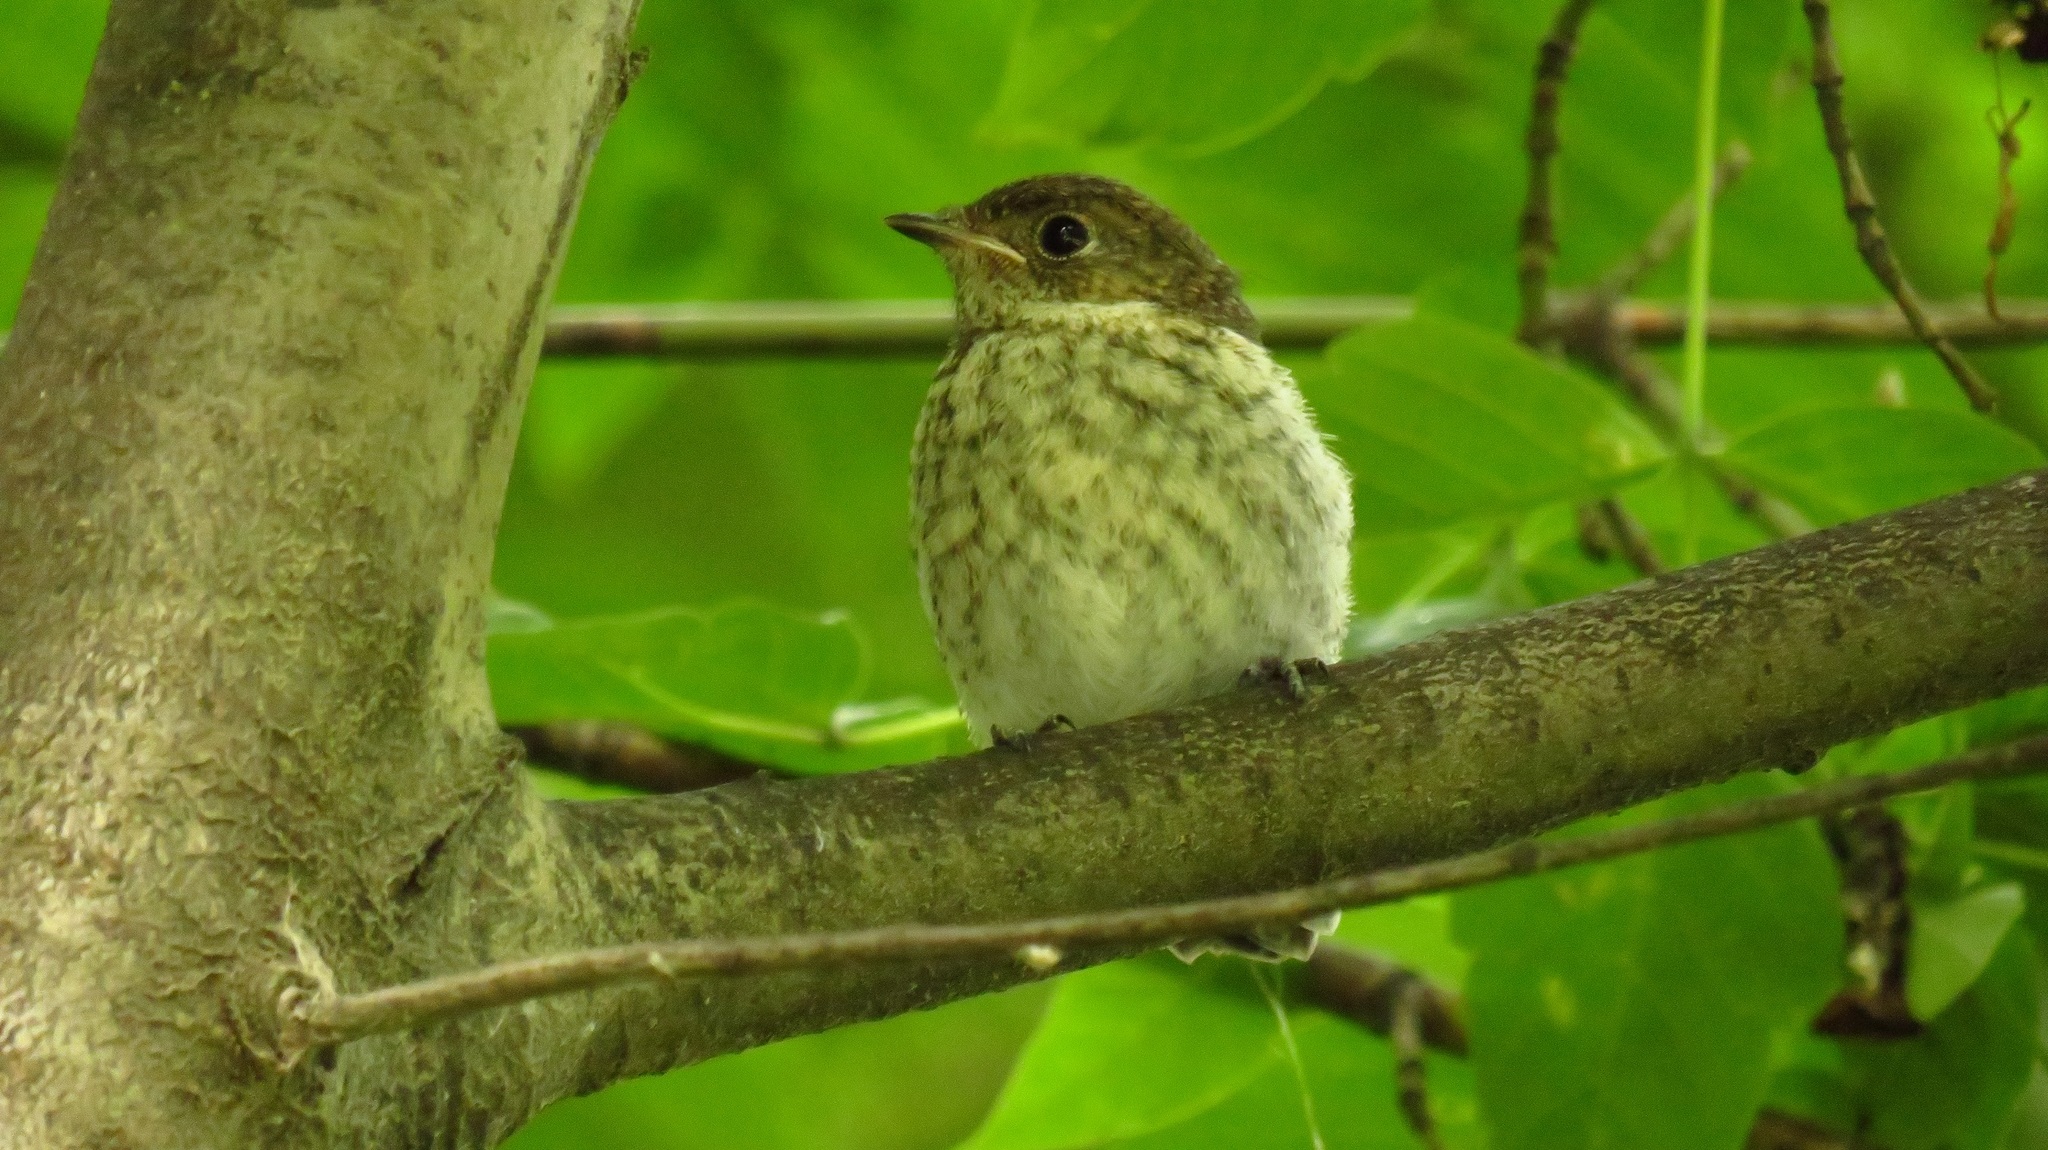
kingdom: Animalia
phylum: Chordata
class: Aves
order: Passeriformes
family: Muscicapidae
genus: Ficedula
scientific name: Ficedula hypoleuca
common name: European pied flycatcher
